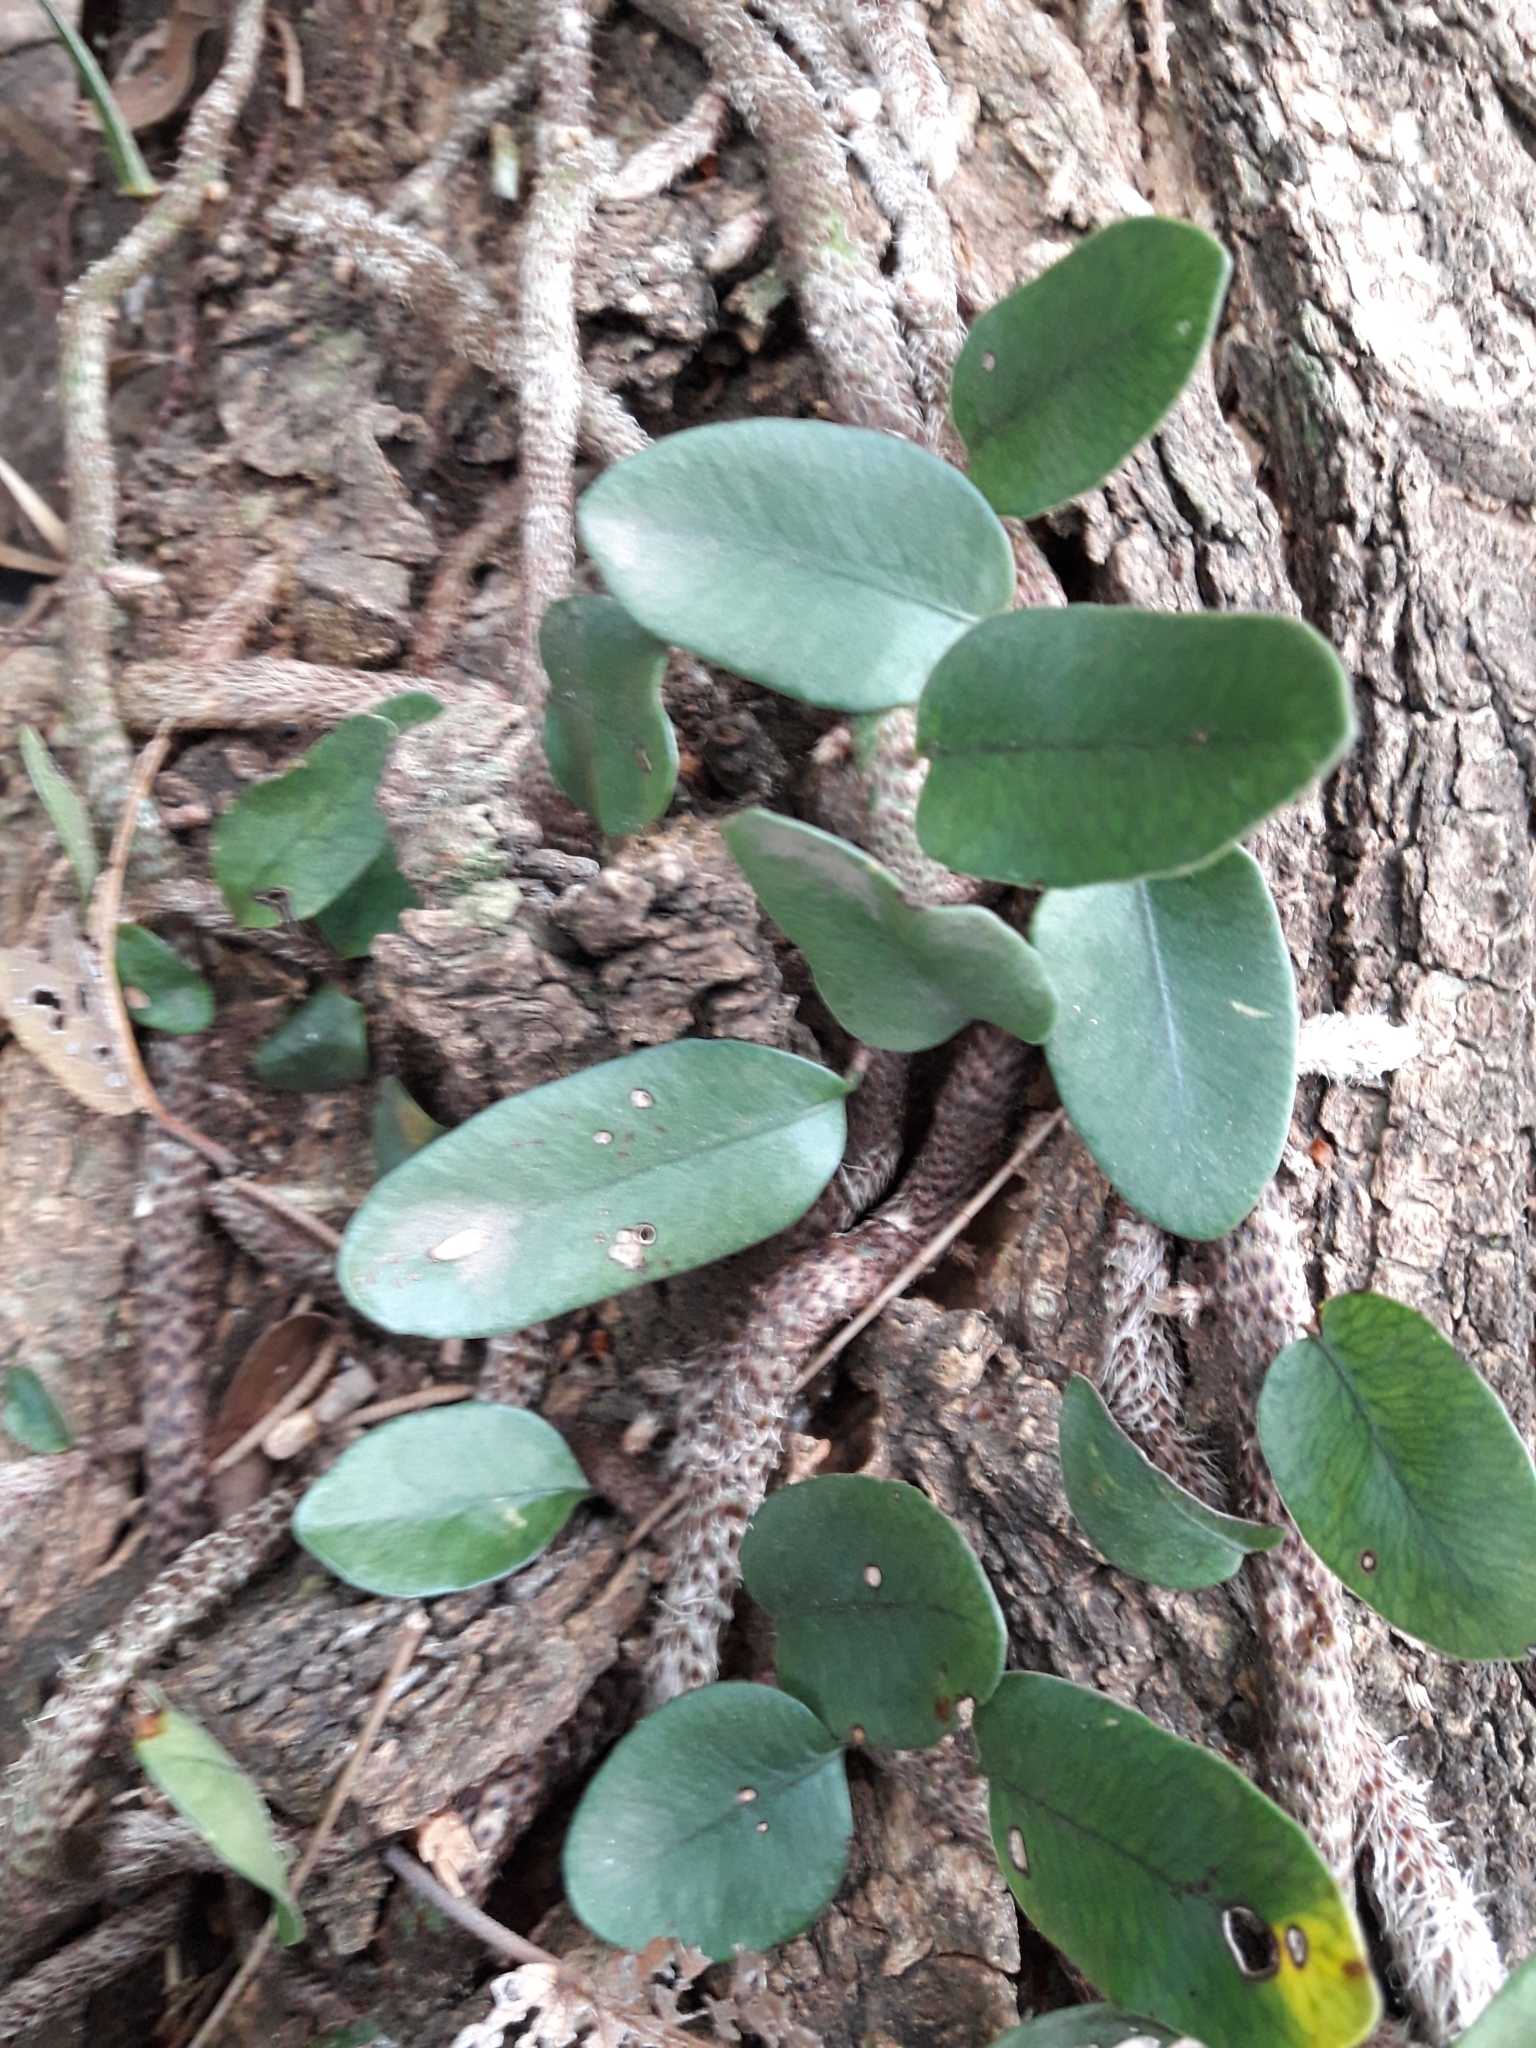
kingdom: Plantae
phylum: Tracheophyta
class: Polypodiopsida
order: Polypodiales
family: Polypodiaceae
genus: Microgramma
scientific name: Microgramma vaccinifolia
